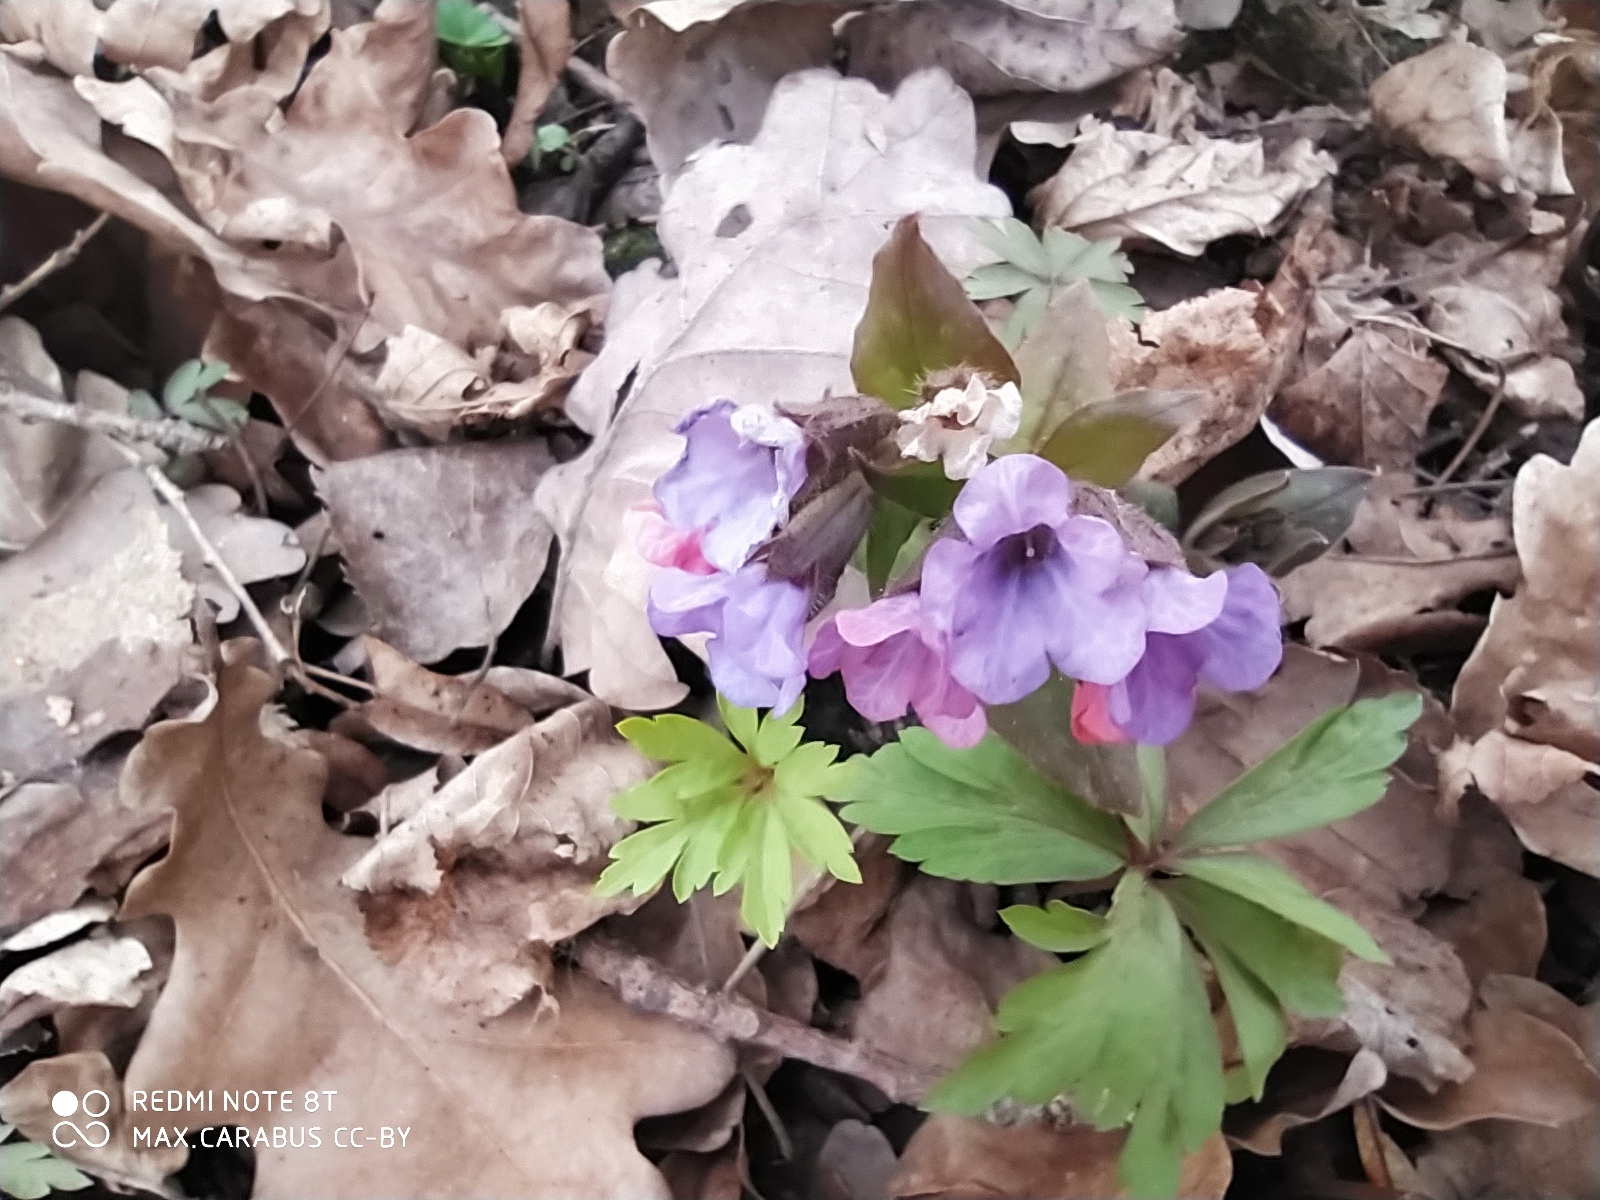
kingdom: Plantae
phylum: Tracheophyta
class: Magnoliopsida
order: Boraginales
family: Boraginaceae
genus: Pulmonaria
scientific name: Pulmonaria obscura
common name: Suffolk lungwort
